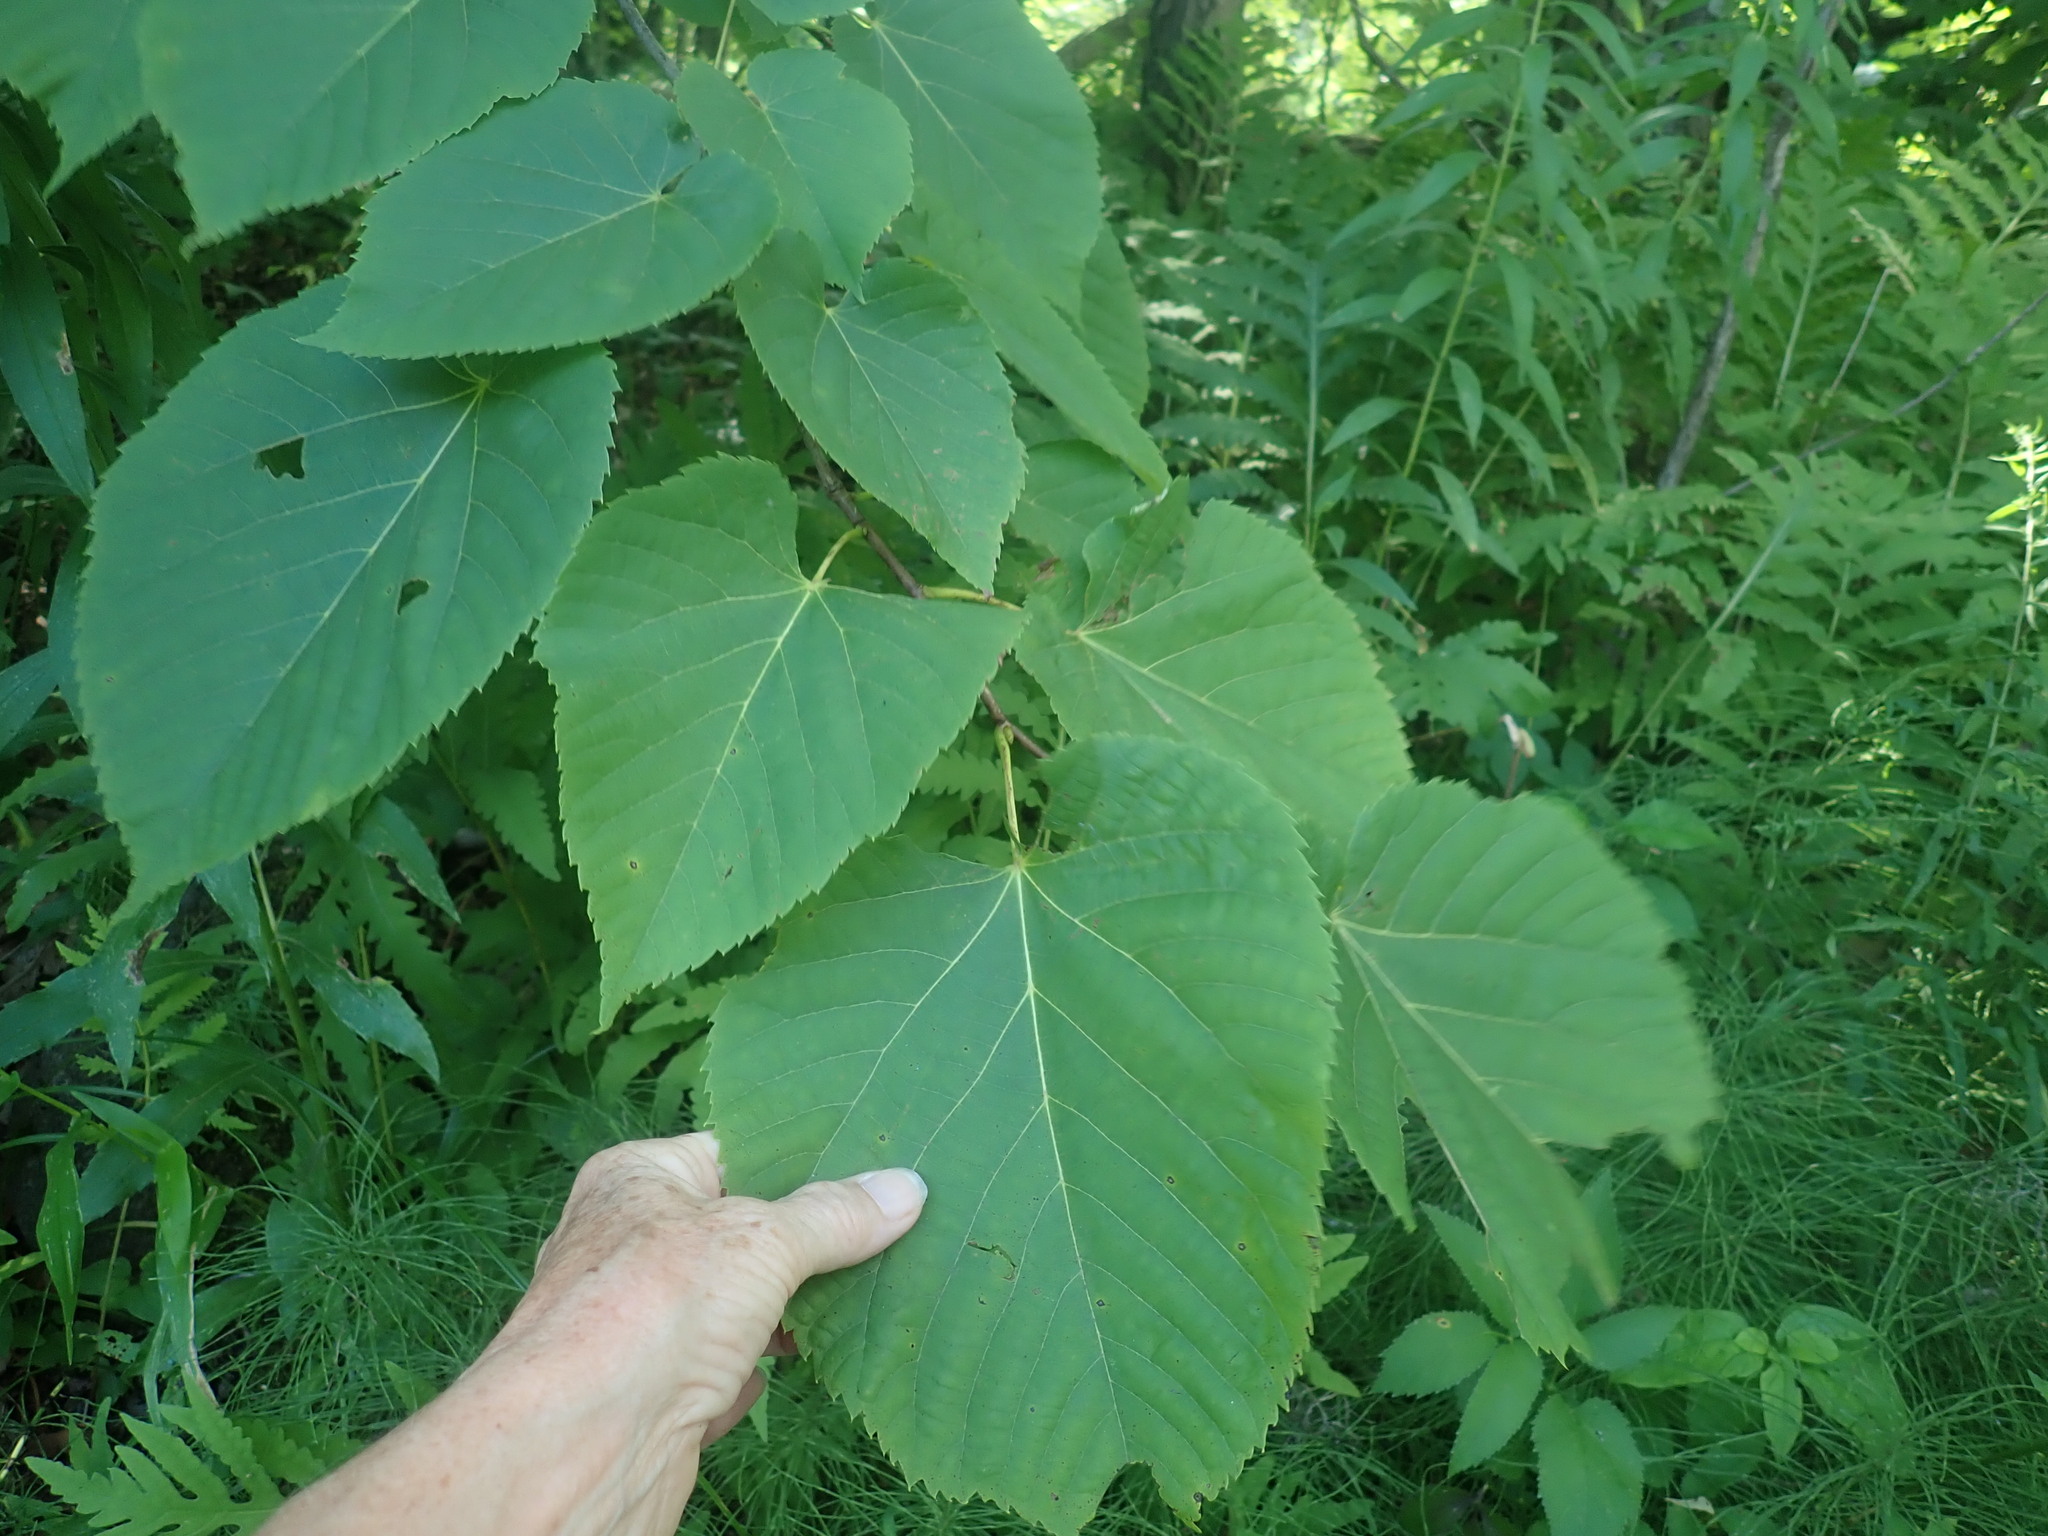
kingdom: Plantae
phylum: Tracheophyta
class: Magnoliopsida
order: Malvales
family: Malvaceae
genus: Tilia
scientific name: Tilia americana
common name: Basswood
